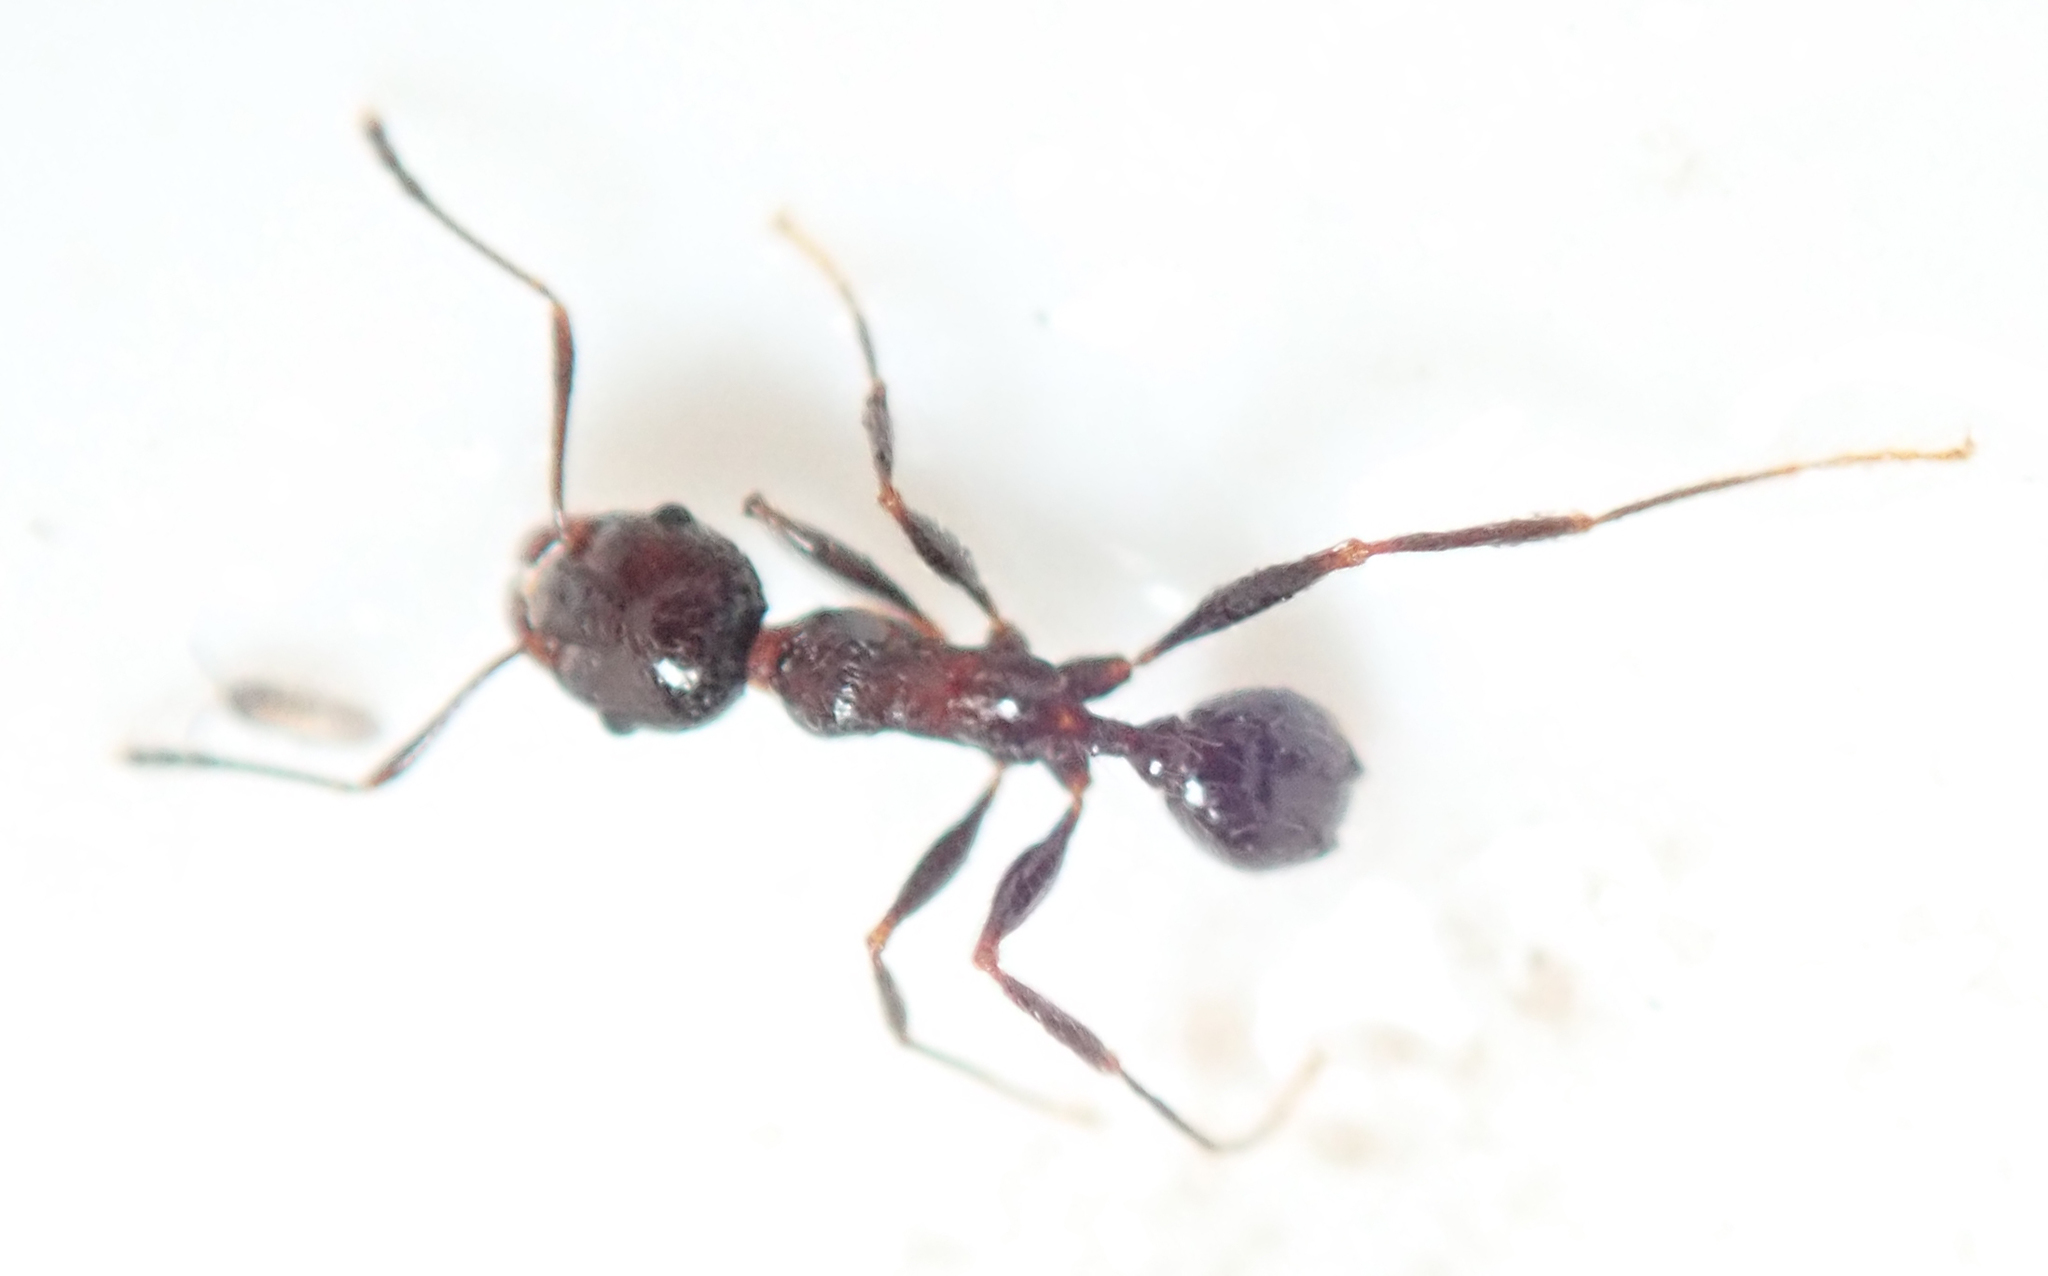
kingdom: Animalia
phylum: Arthropoda
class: Insecta
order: Hymenoptera
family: Formicidae
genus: Pheidole
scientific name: Pheidole tenuinodis
